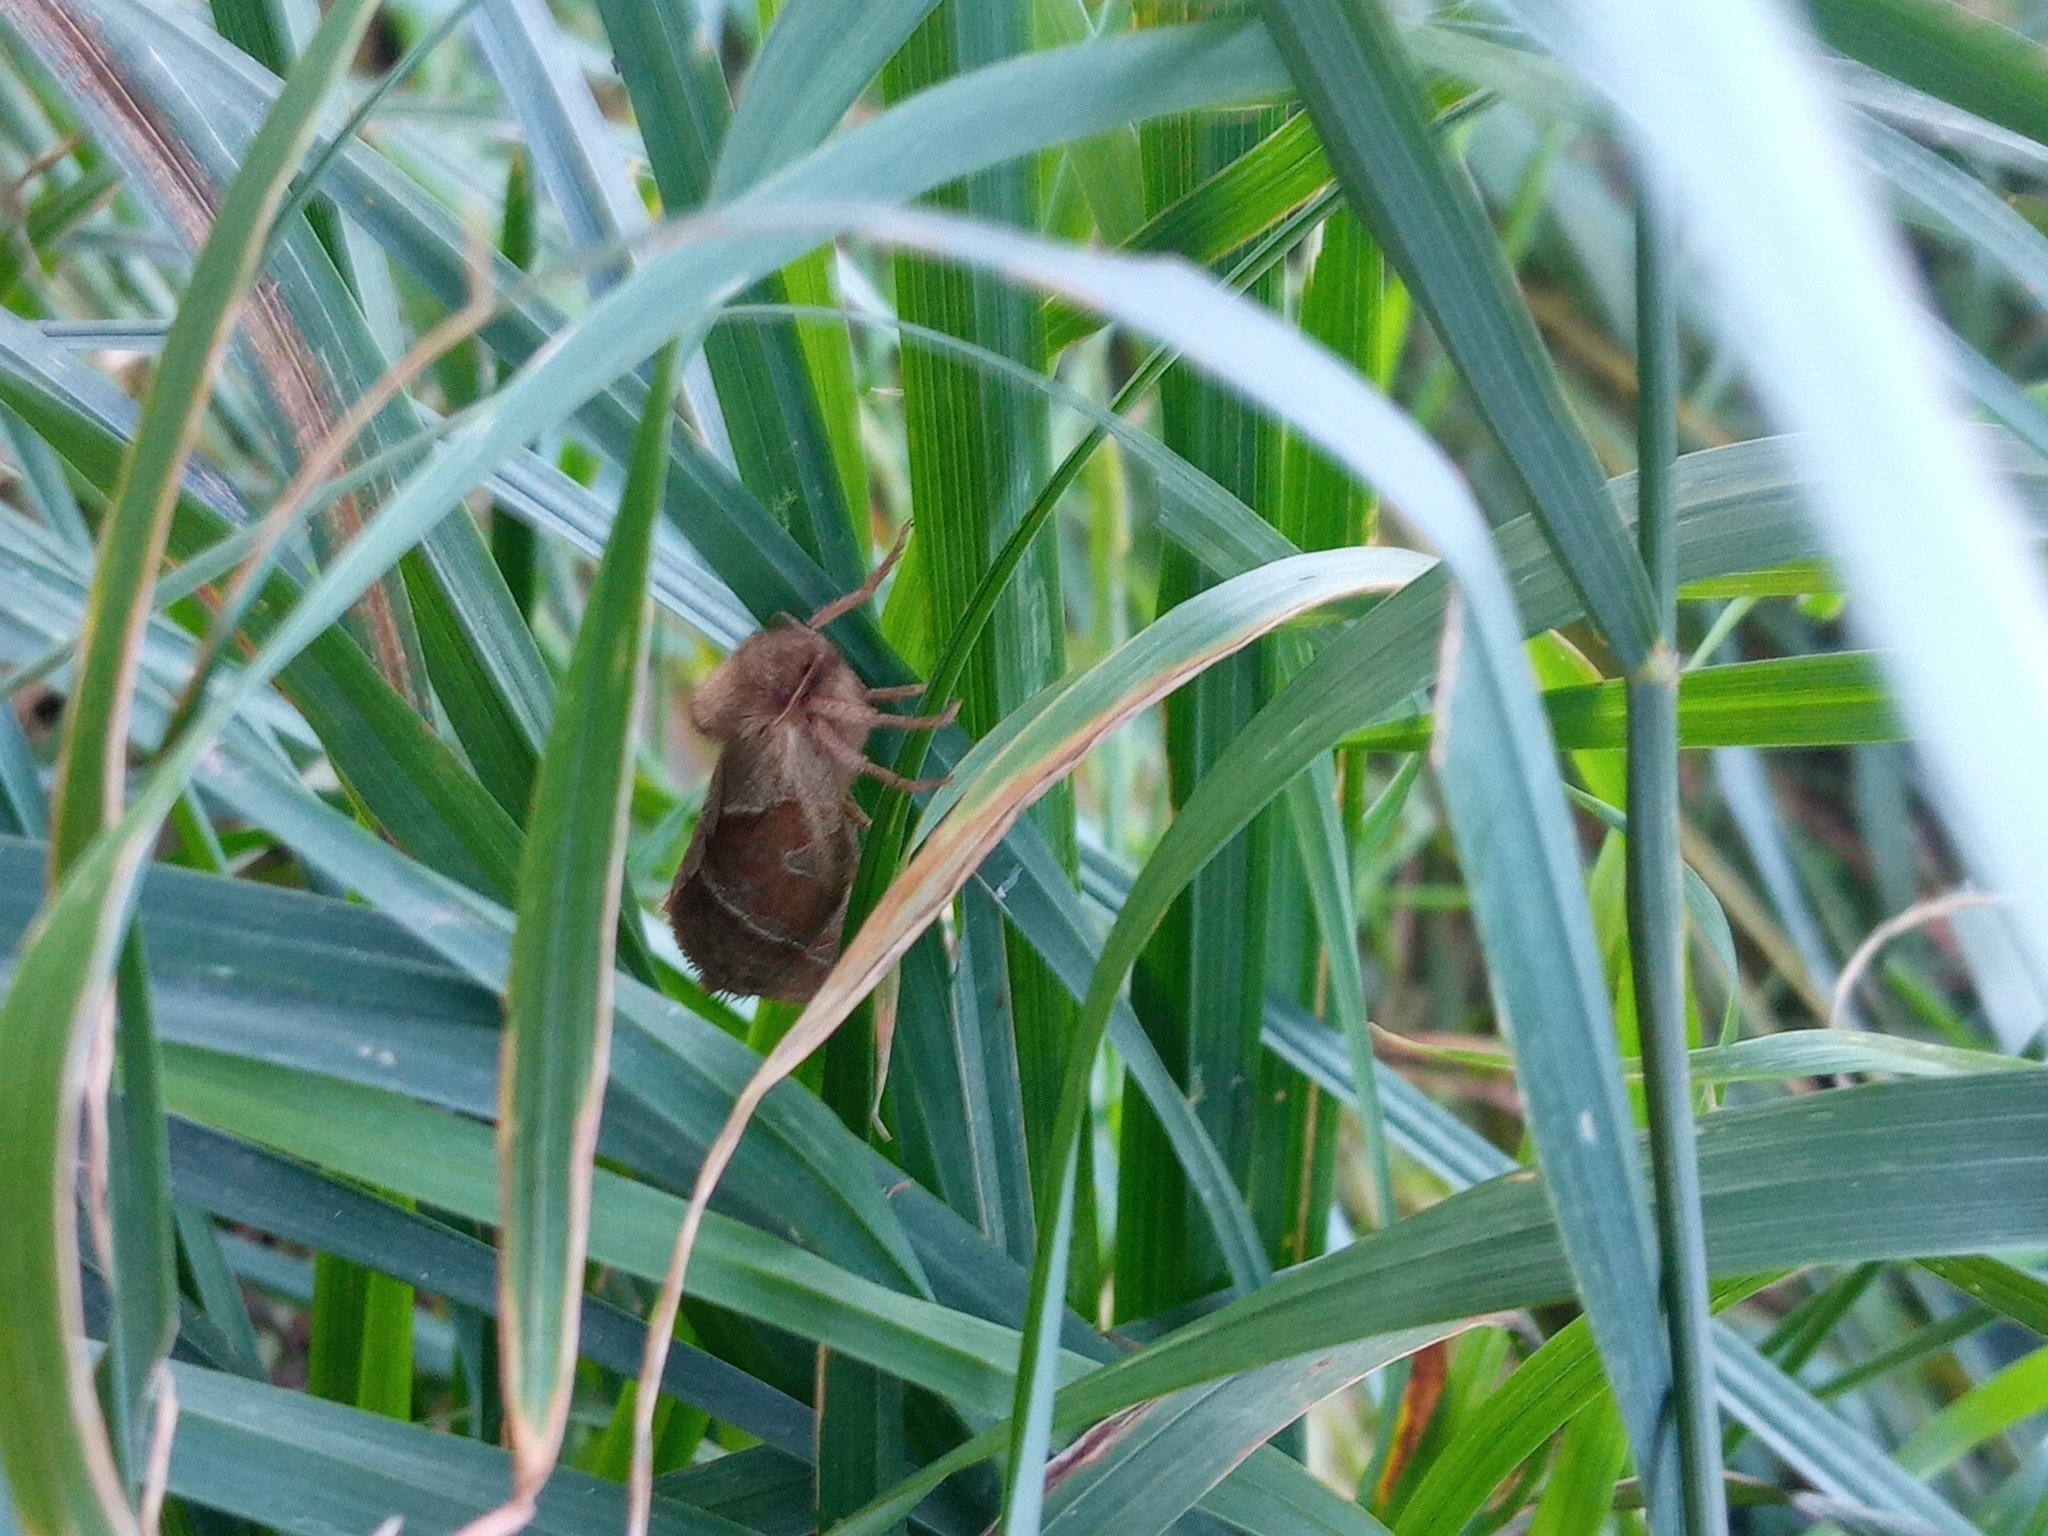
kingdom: Animalia
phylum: Arthropoda
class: Insecta
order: Lepidoptera
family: Hepialidae
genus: Triodia
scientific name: Triodia sylvina
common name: Orange swift
